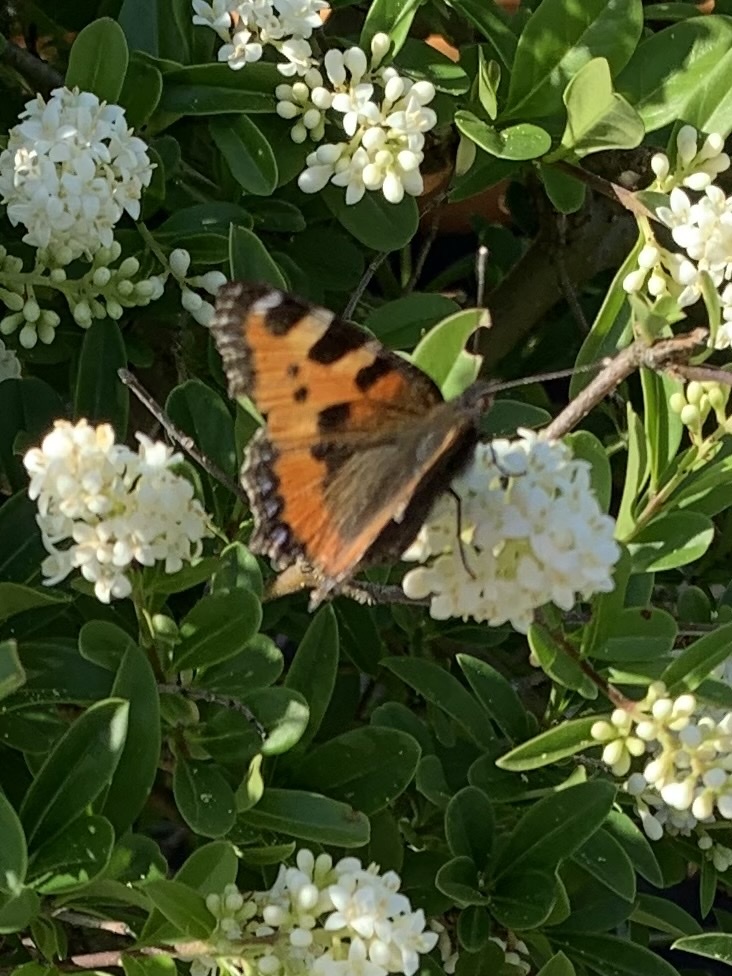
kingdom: Animalia
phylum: Arthropoda
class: Insecta
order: Lepidoptera
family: Nymphalidae
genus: Aglais
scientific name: Aglais urticae
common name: Small tortoiseshell
